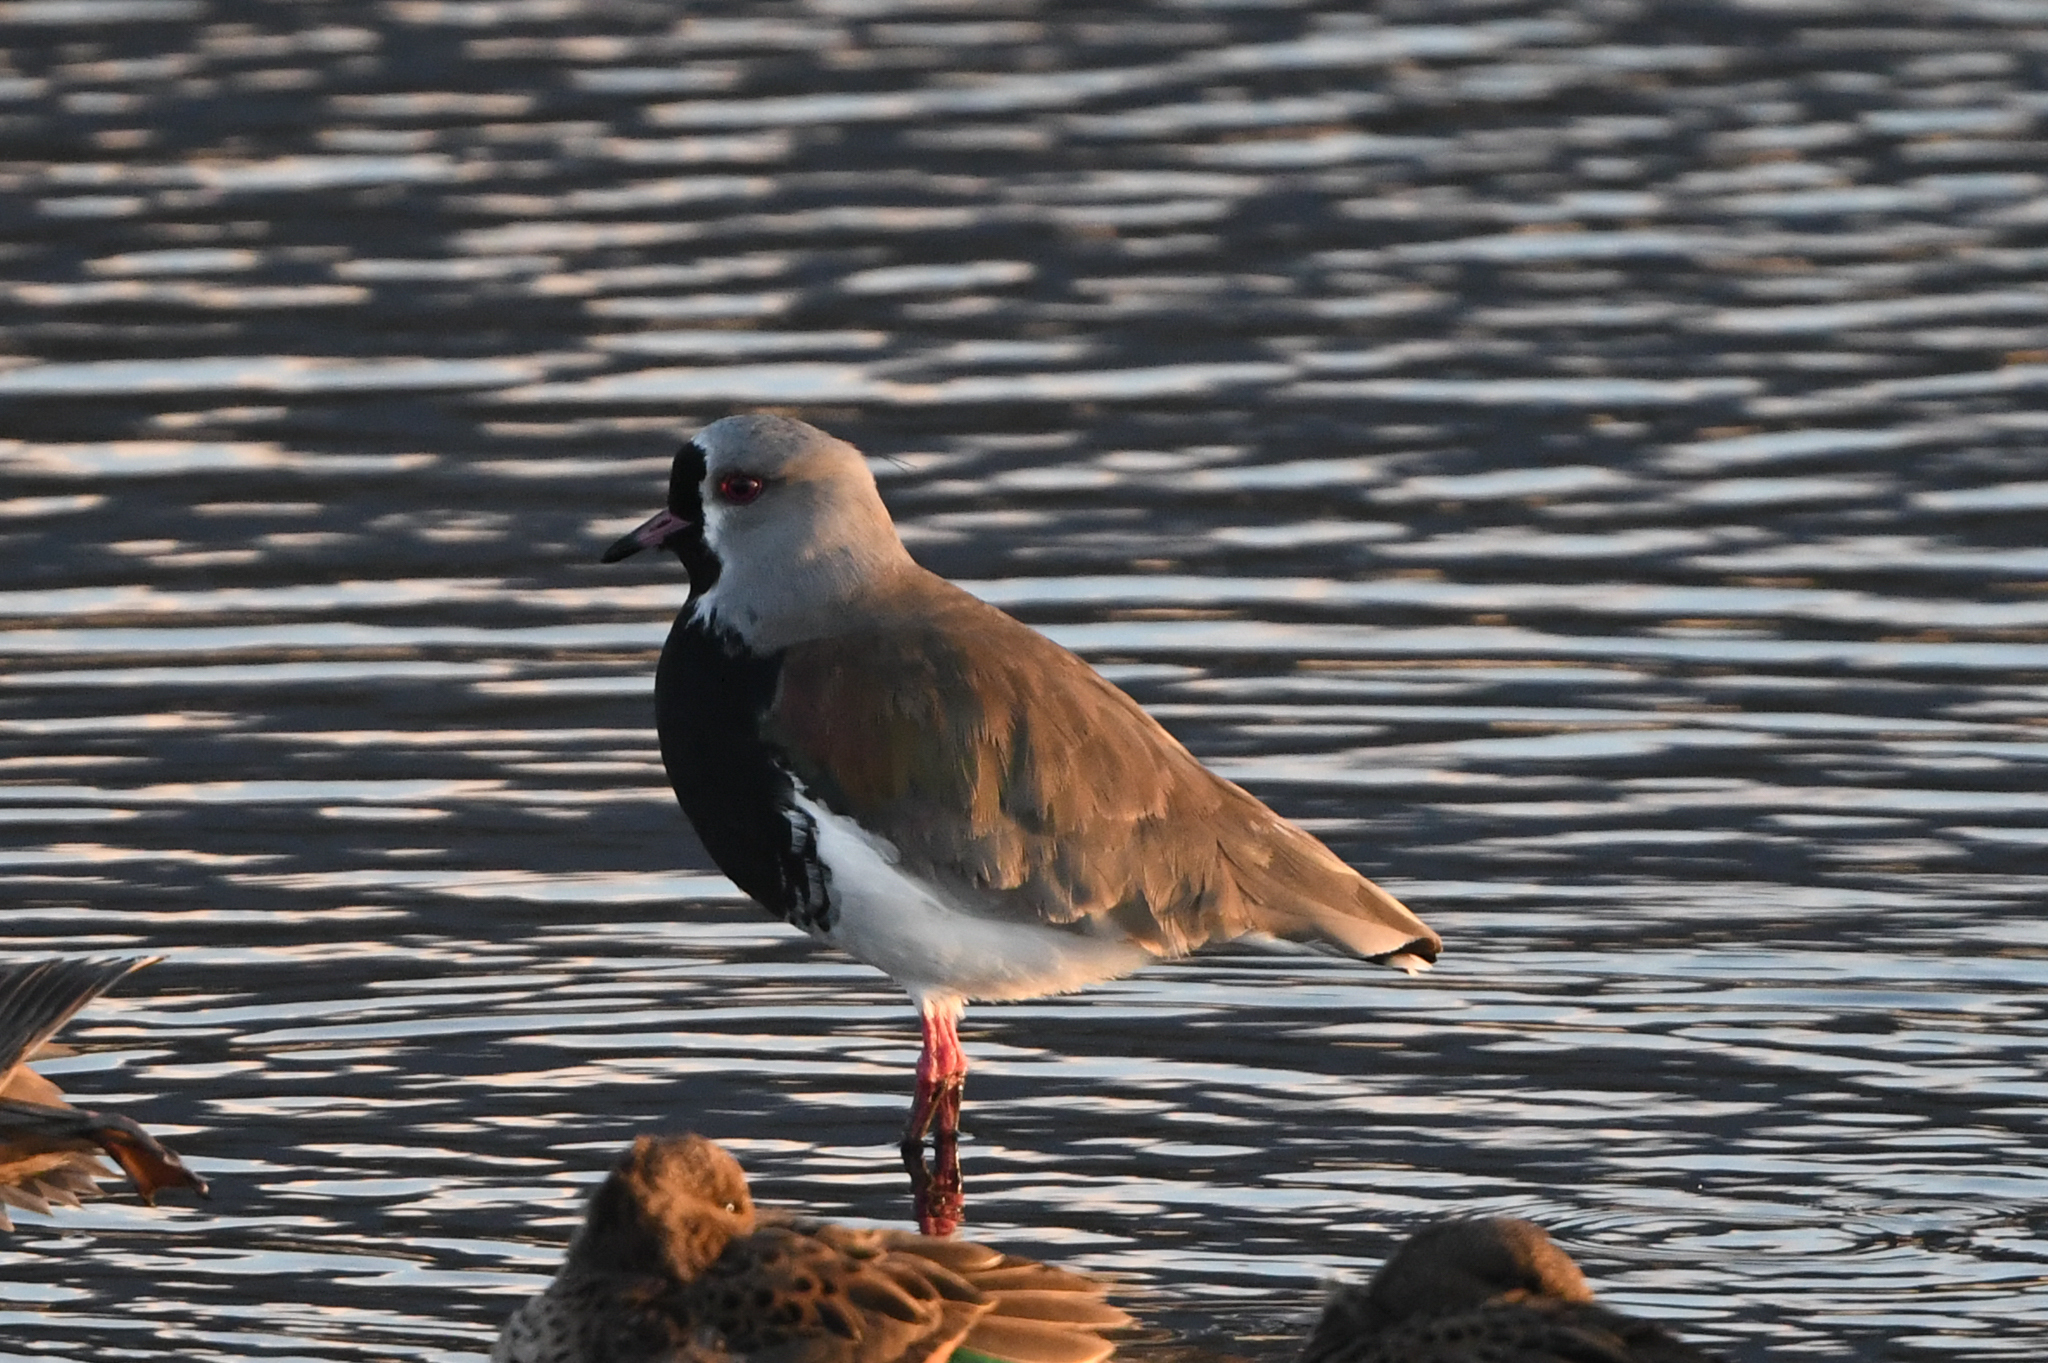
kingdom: Animalia
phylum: Chordata
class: Aves
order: Charadriiformes
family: Charadriidae
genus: Vanellus
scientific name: Vanellus chilensis
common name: Southern lapwing
